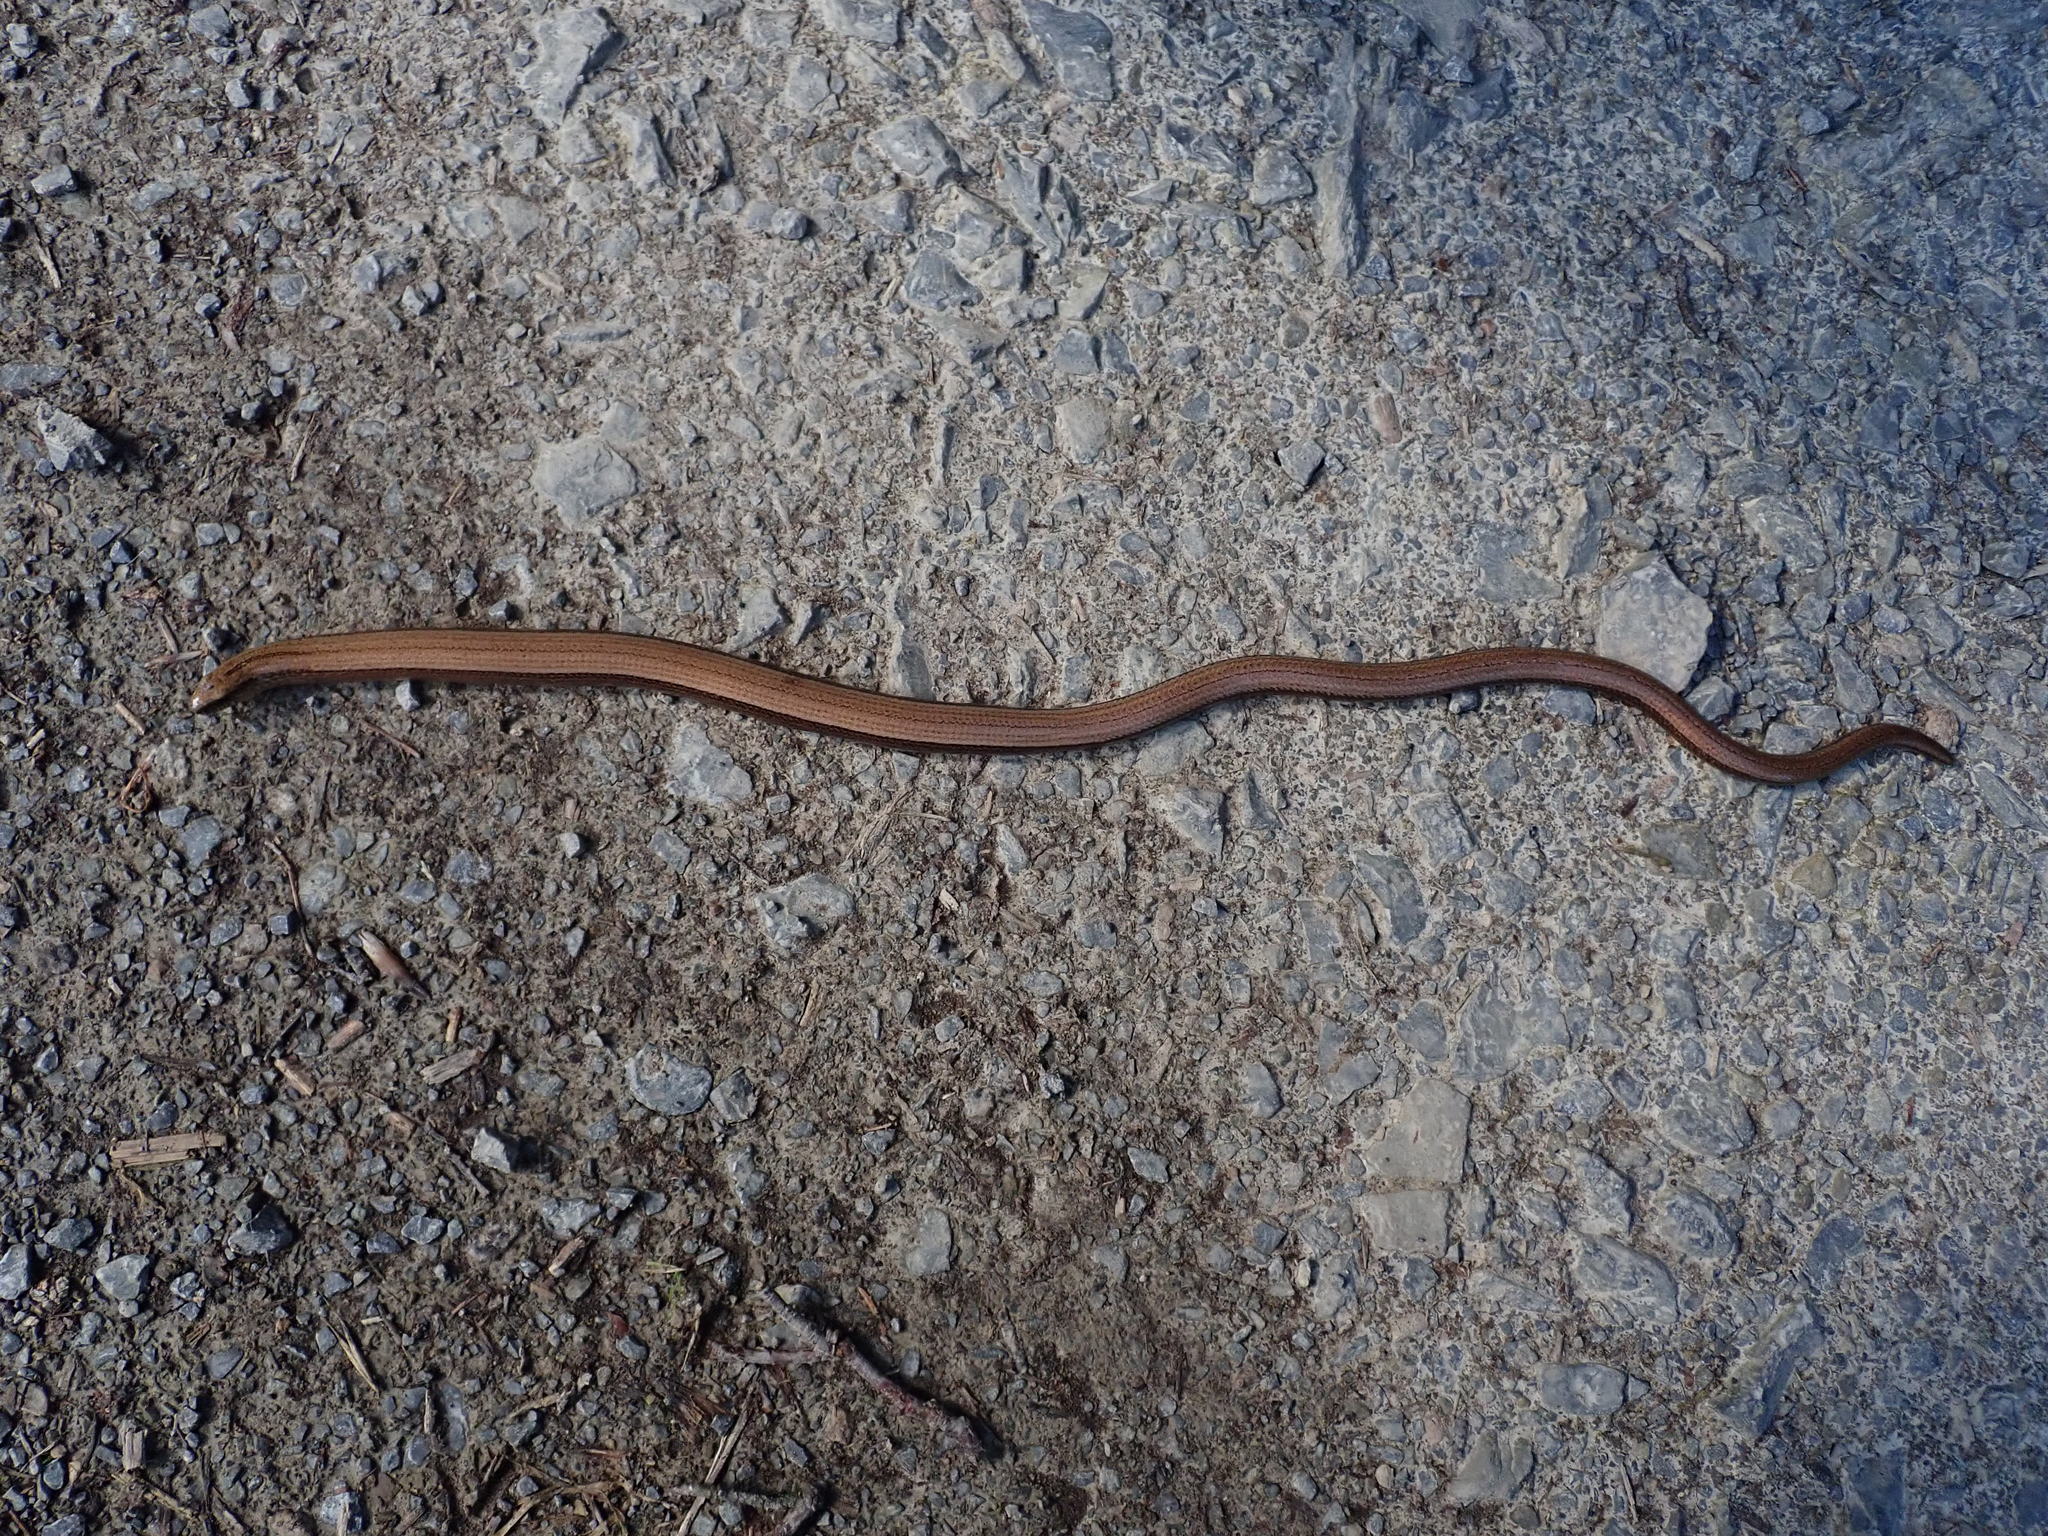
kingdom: Animalia
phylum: Chordata
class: Squamata
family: Anguidae
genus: Anguis
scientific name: Anguis fragilis
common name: Slow worm
